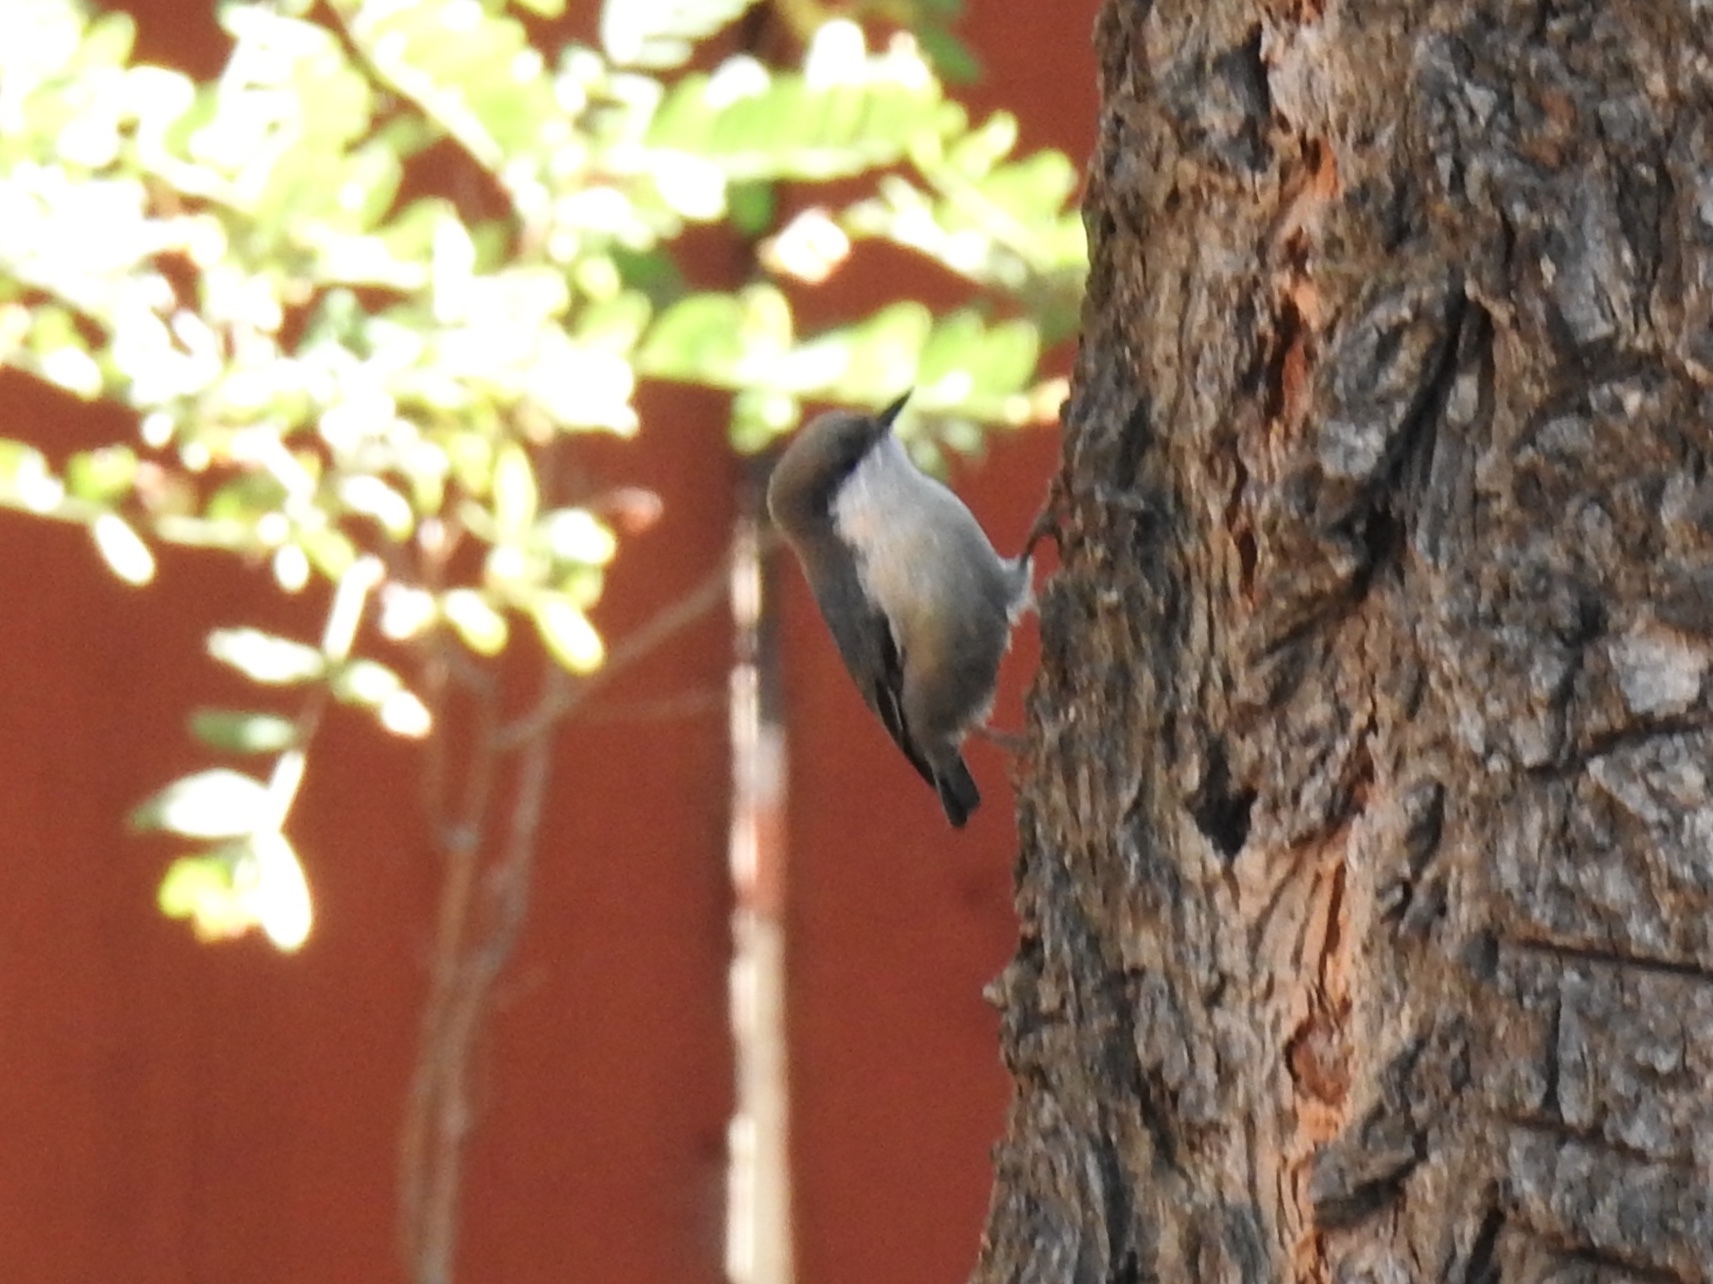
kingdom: Animalia
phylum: Chordata
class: Aves
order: Passeriformes
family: Sittidae
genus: Sitta
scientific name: Sitta pygmaea
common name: Pygmy nuthatch
